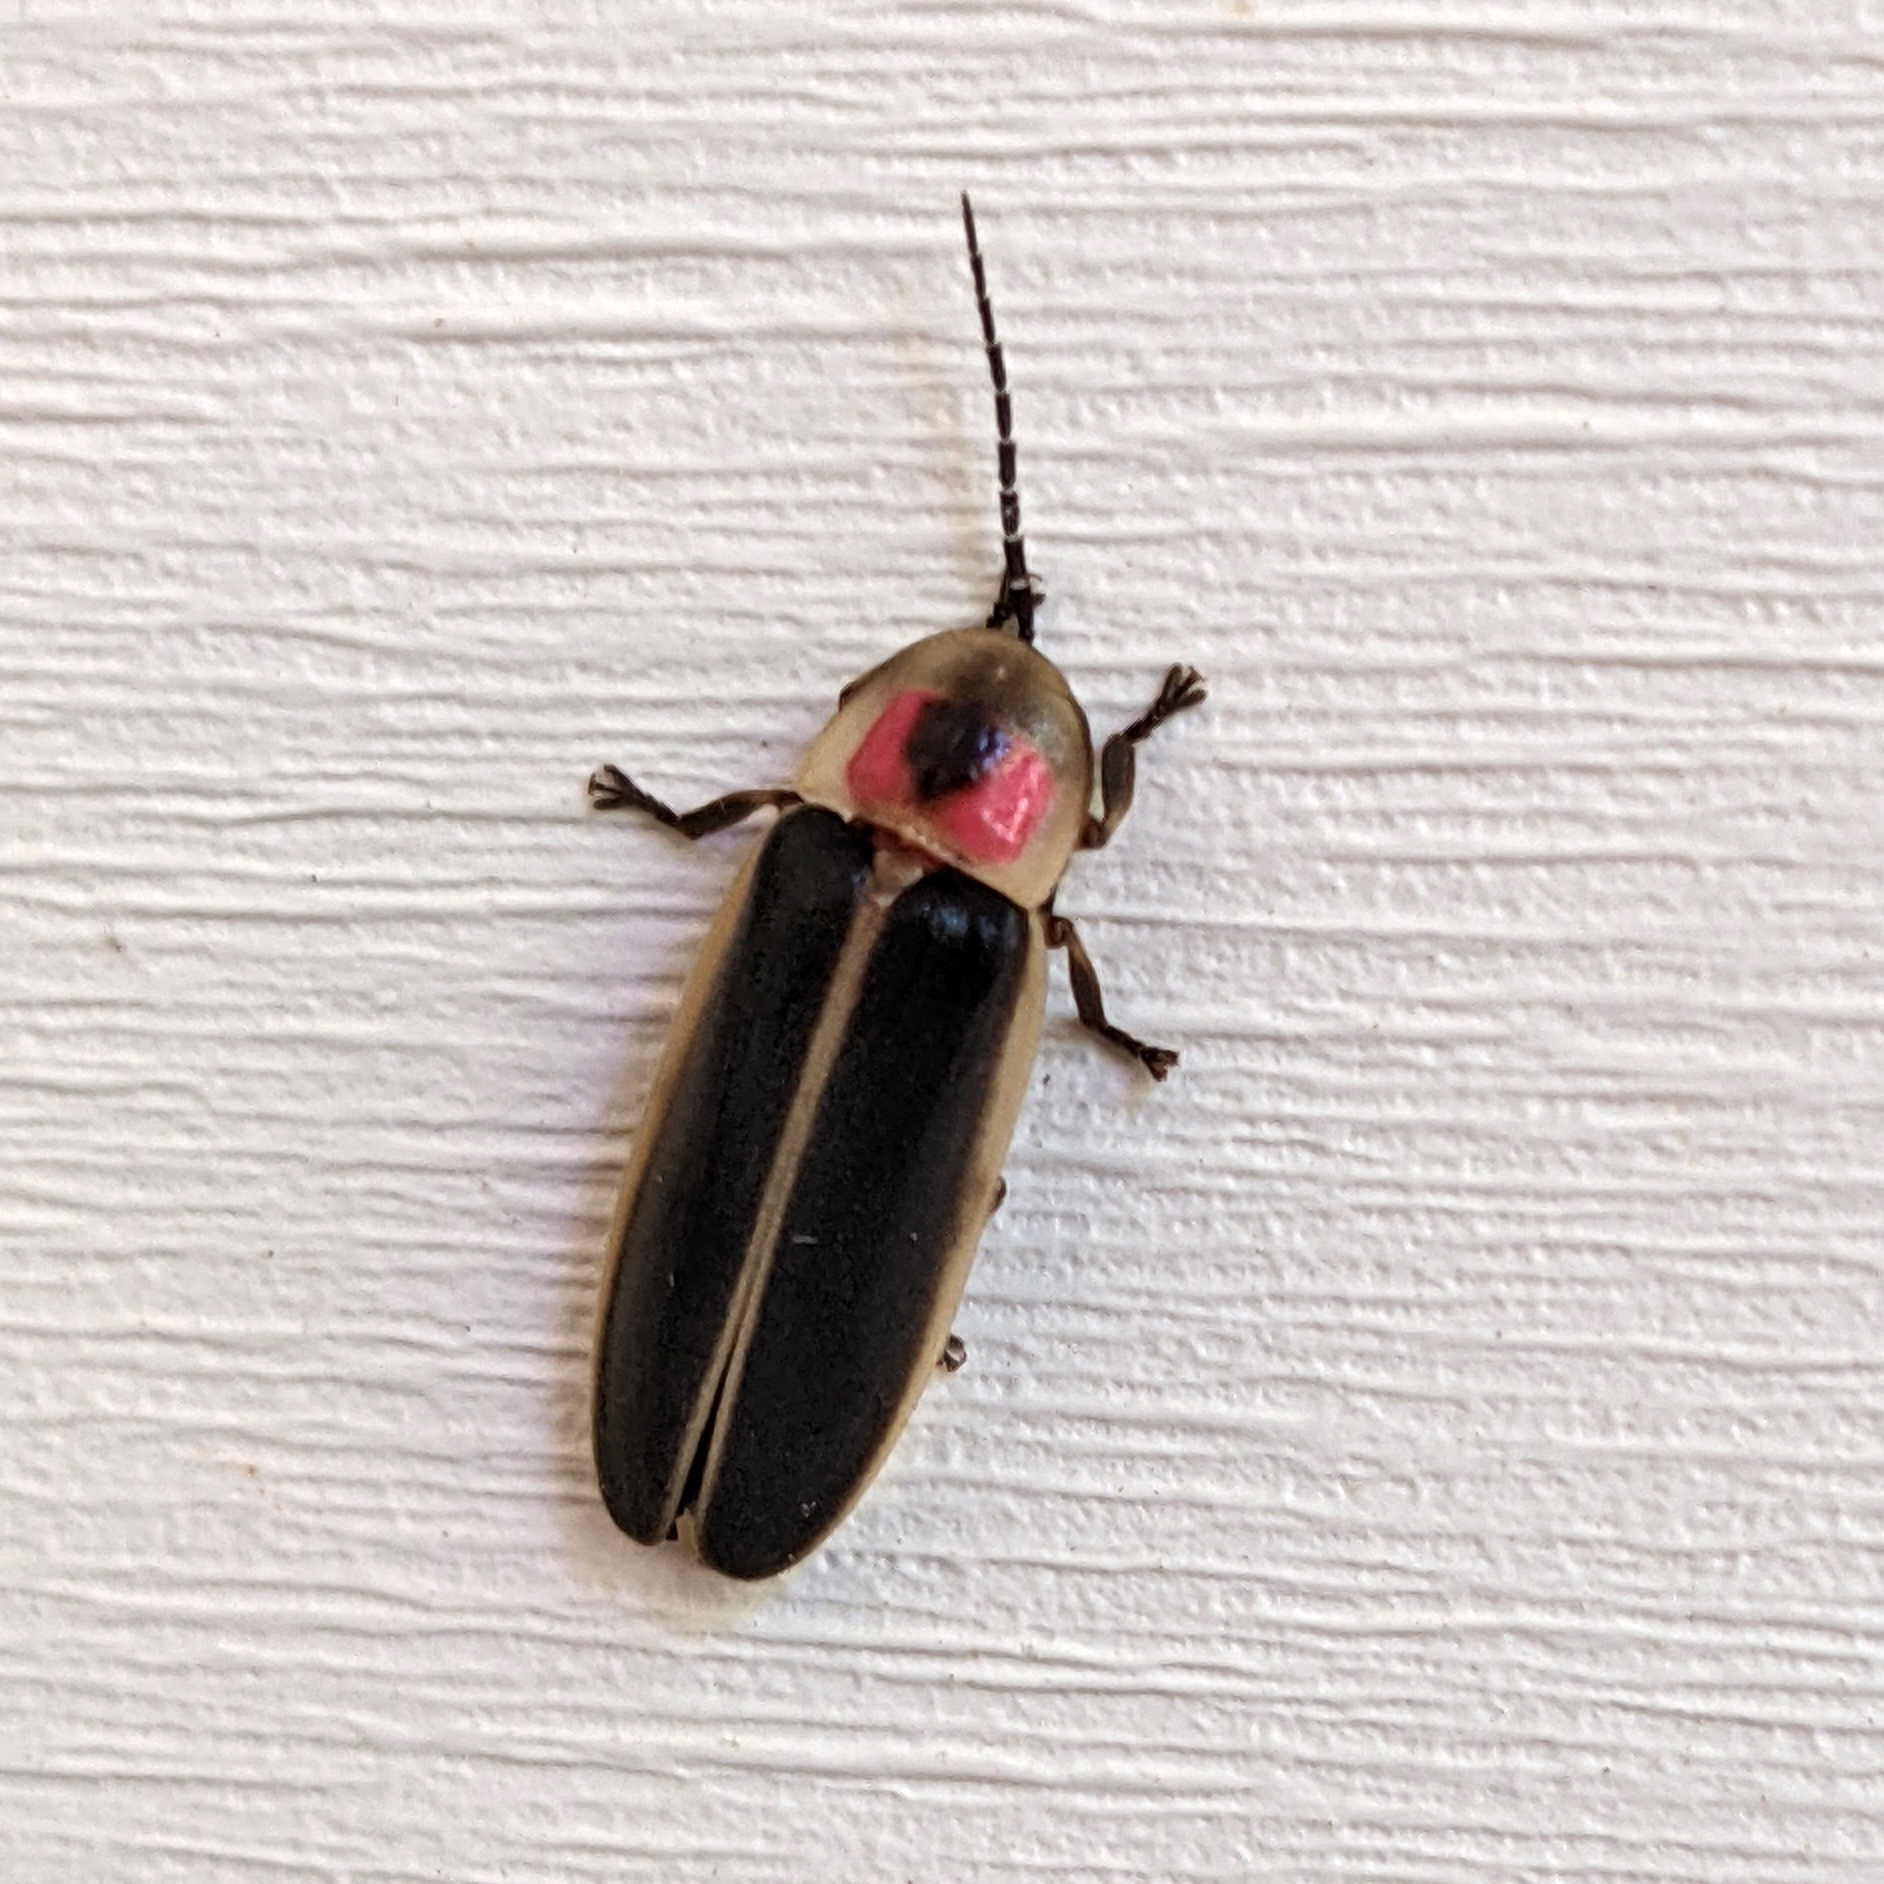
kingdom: Animalia
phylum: Arthropoda
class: Insecta
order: Coleoptera
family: Lampyridae
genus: Photinus
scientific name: Photinus pyralis
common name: Big dipper firefly
